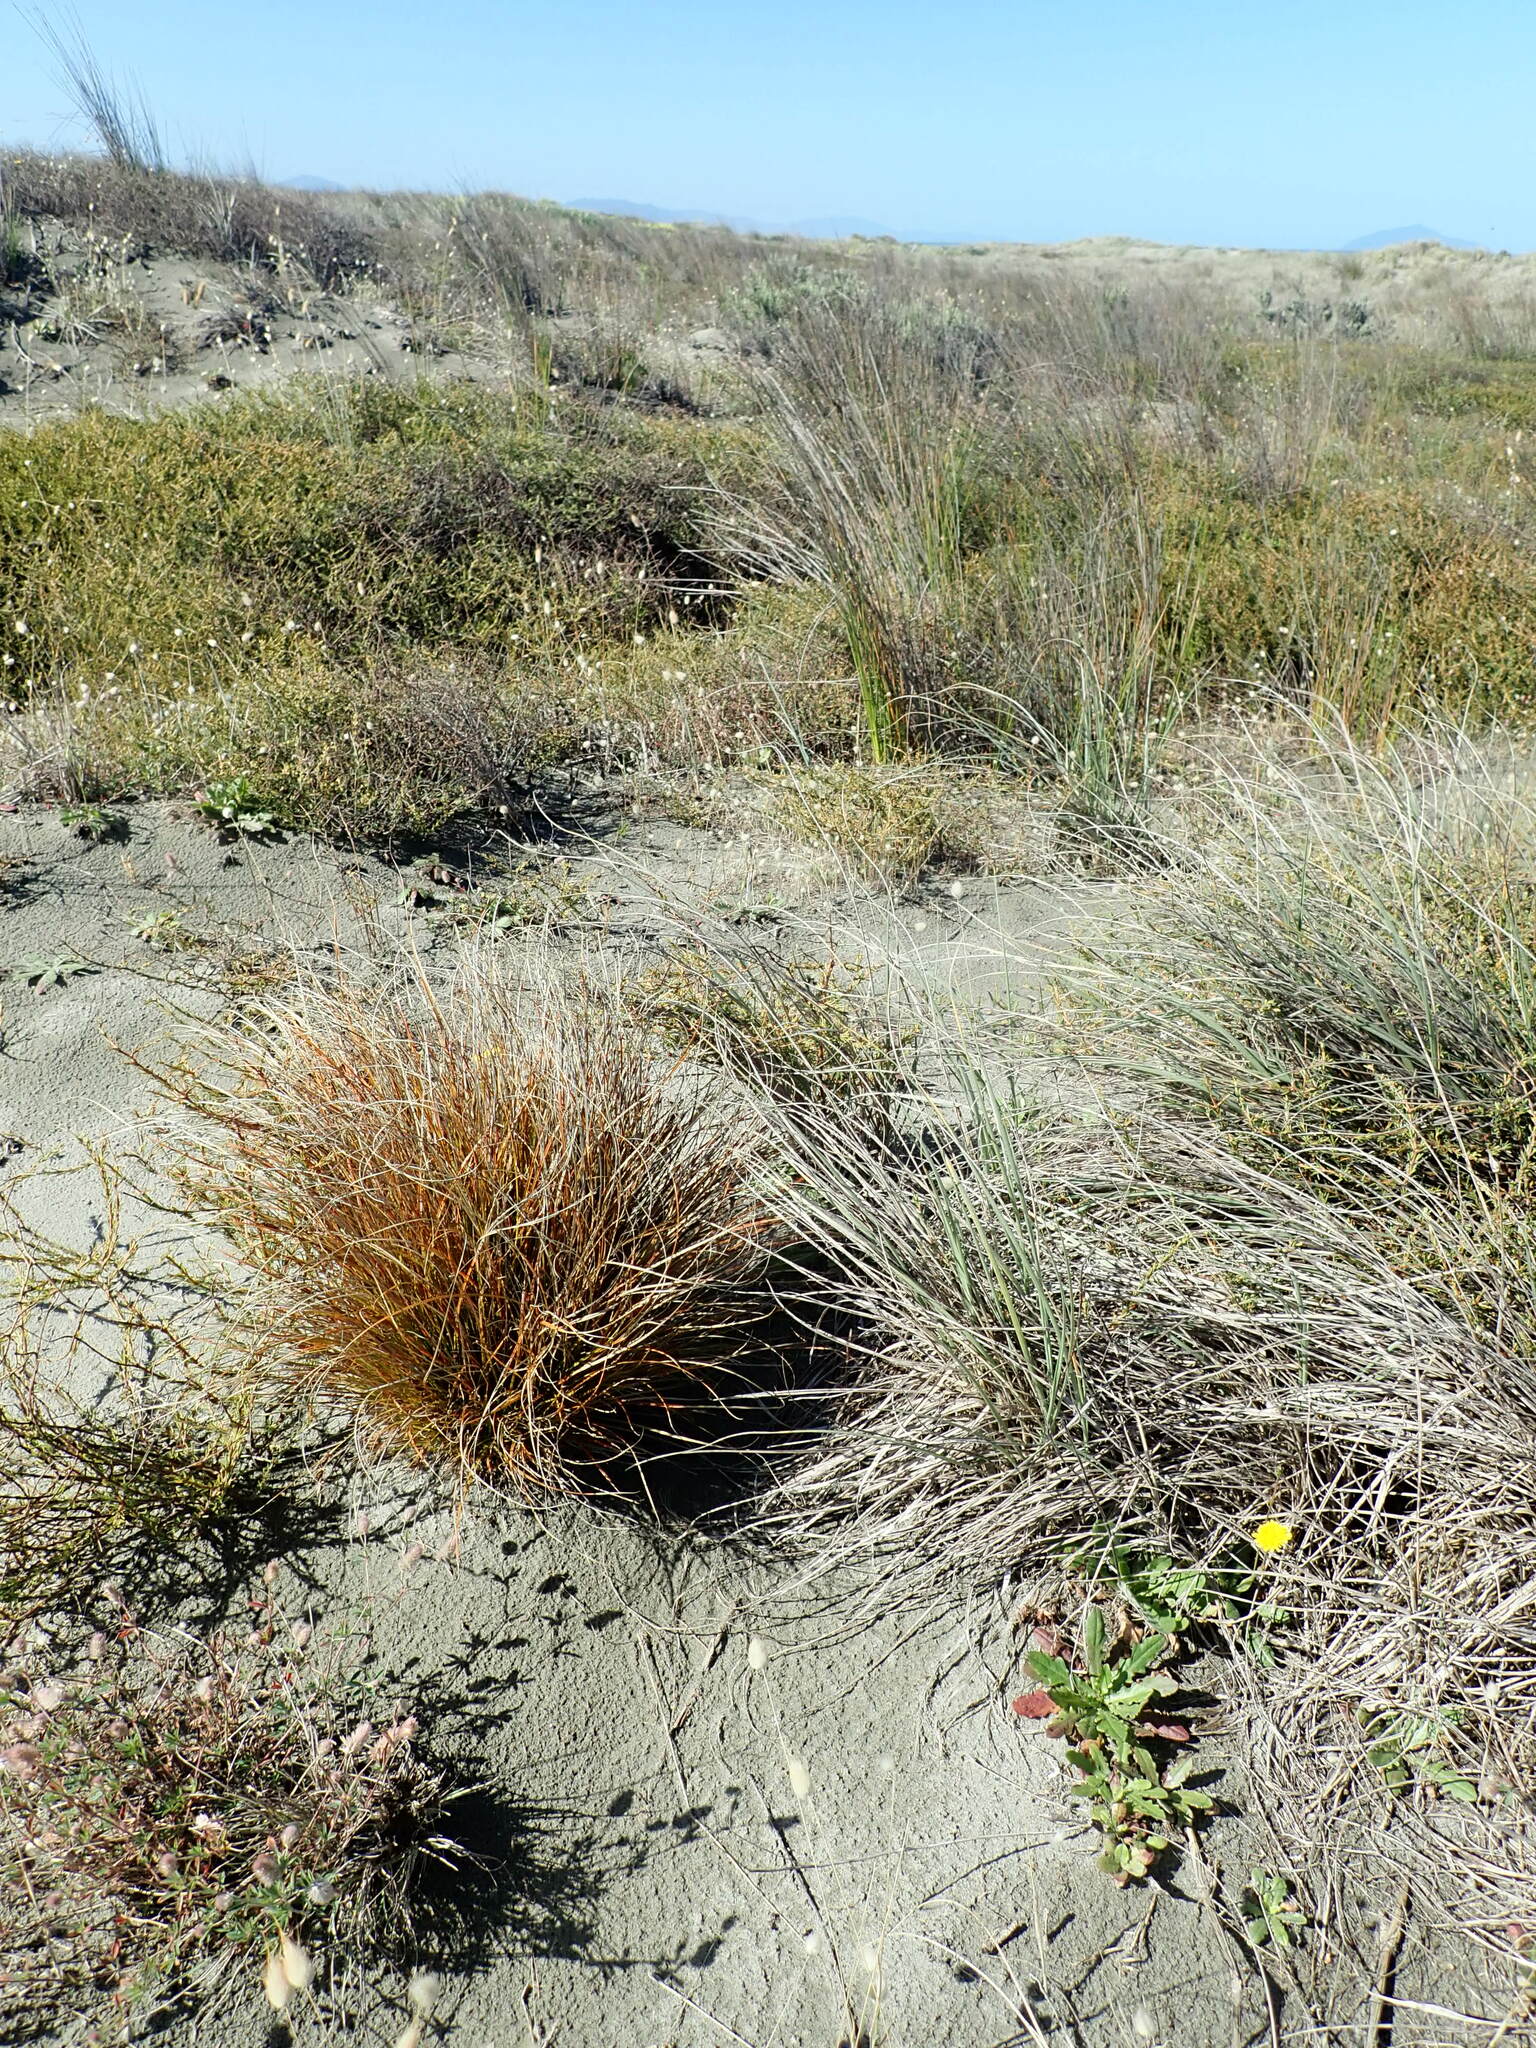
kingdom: Plantae
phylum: Tracheophyta
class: Liliopsida
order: Poales
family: Cyperaceae
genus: Carex
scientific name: Carex testacea
